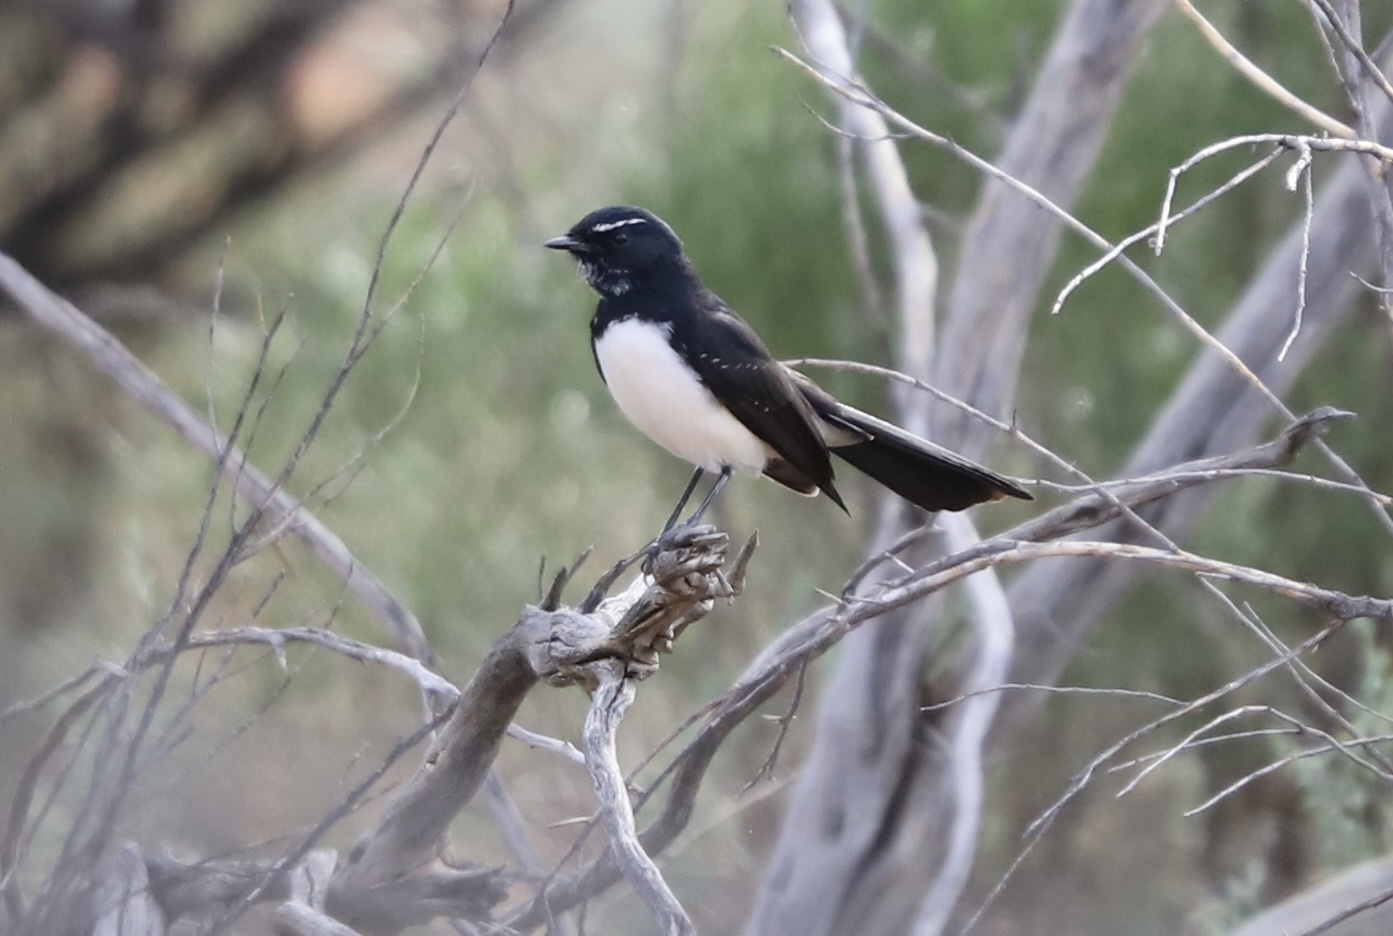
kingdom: Animalia
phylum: Chordata
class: Aves
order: Passeriformes
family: Rhipiduridae
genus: Rhipidura
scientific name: Rhipidura leucophrys
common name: Willie wagtail
